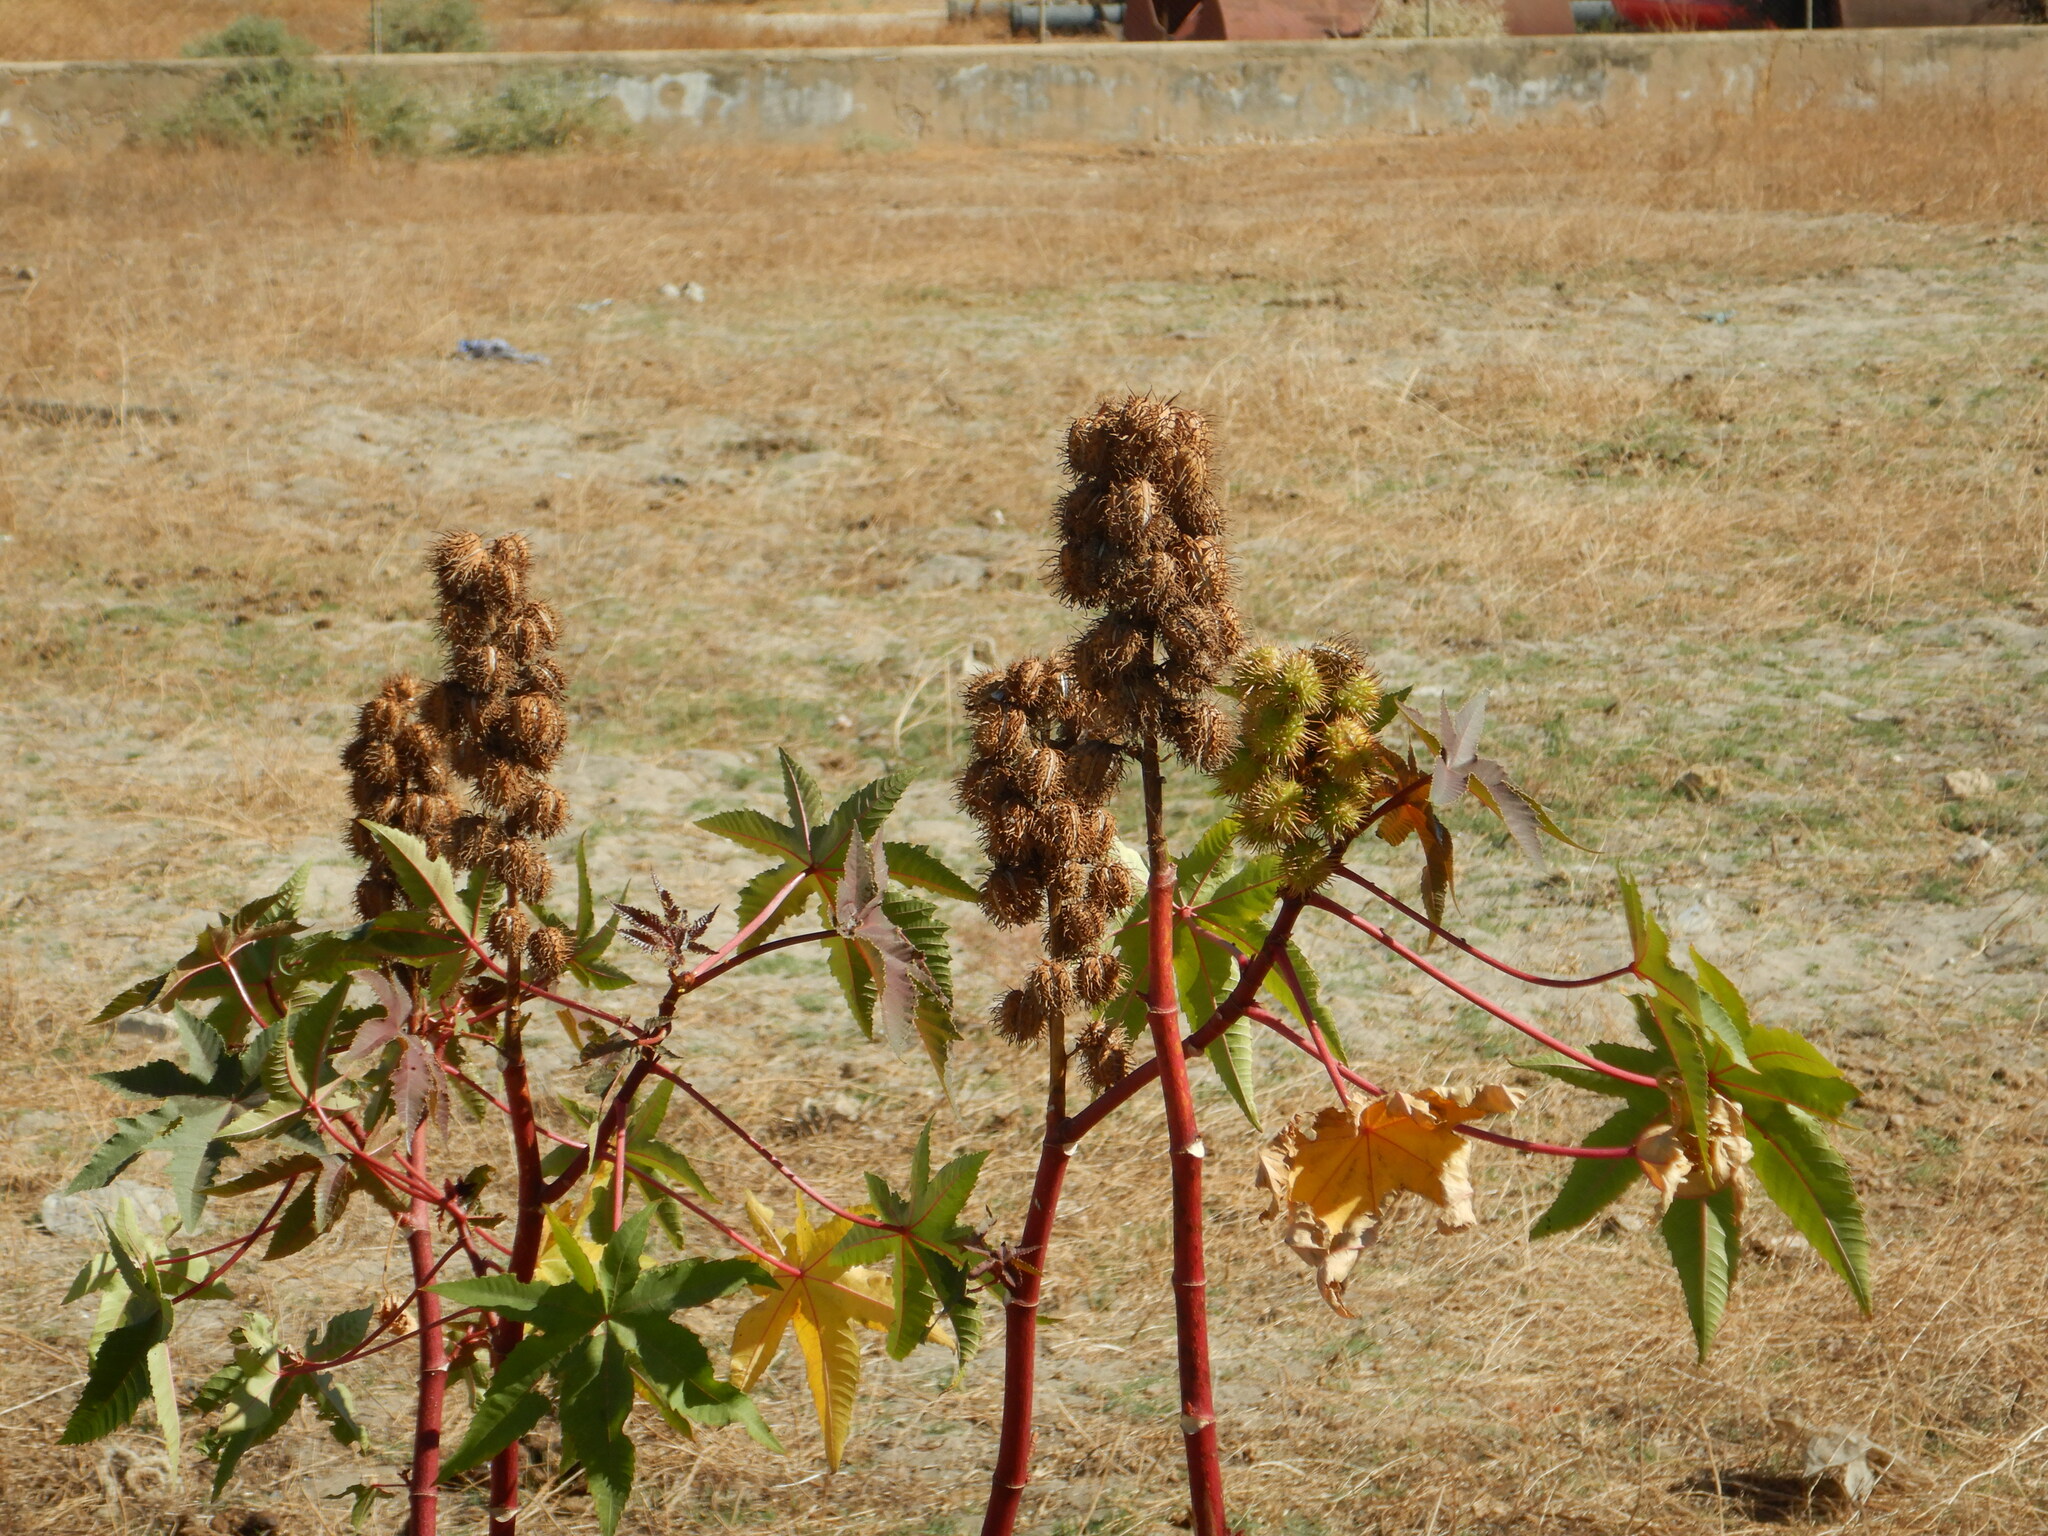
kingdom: Plantae
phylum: Tracheophyta
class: Magnoliopsida
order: Malpighiales
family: Euphorbiaceae
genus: Ricinus
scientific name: Ricinus communis
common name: Castor-oil-plant
